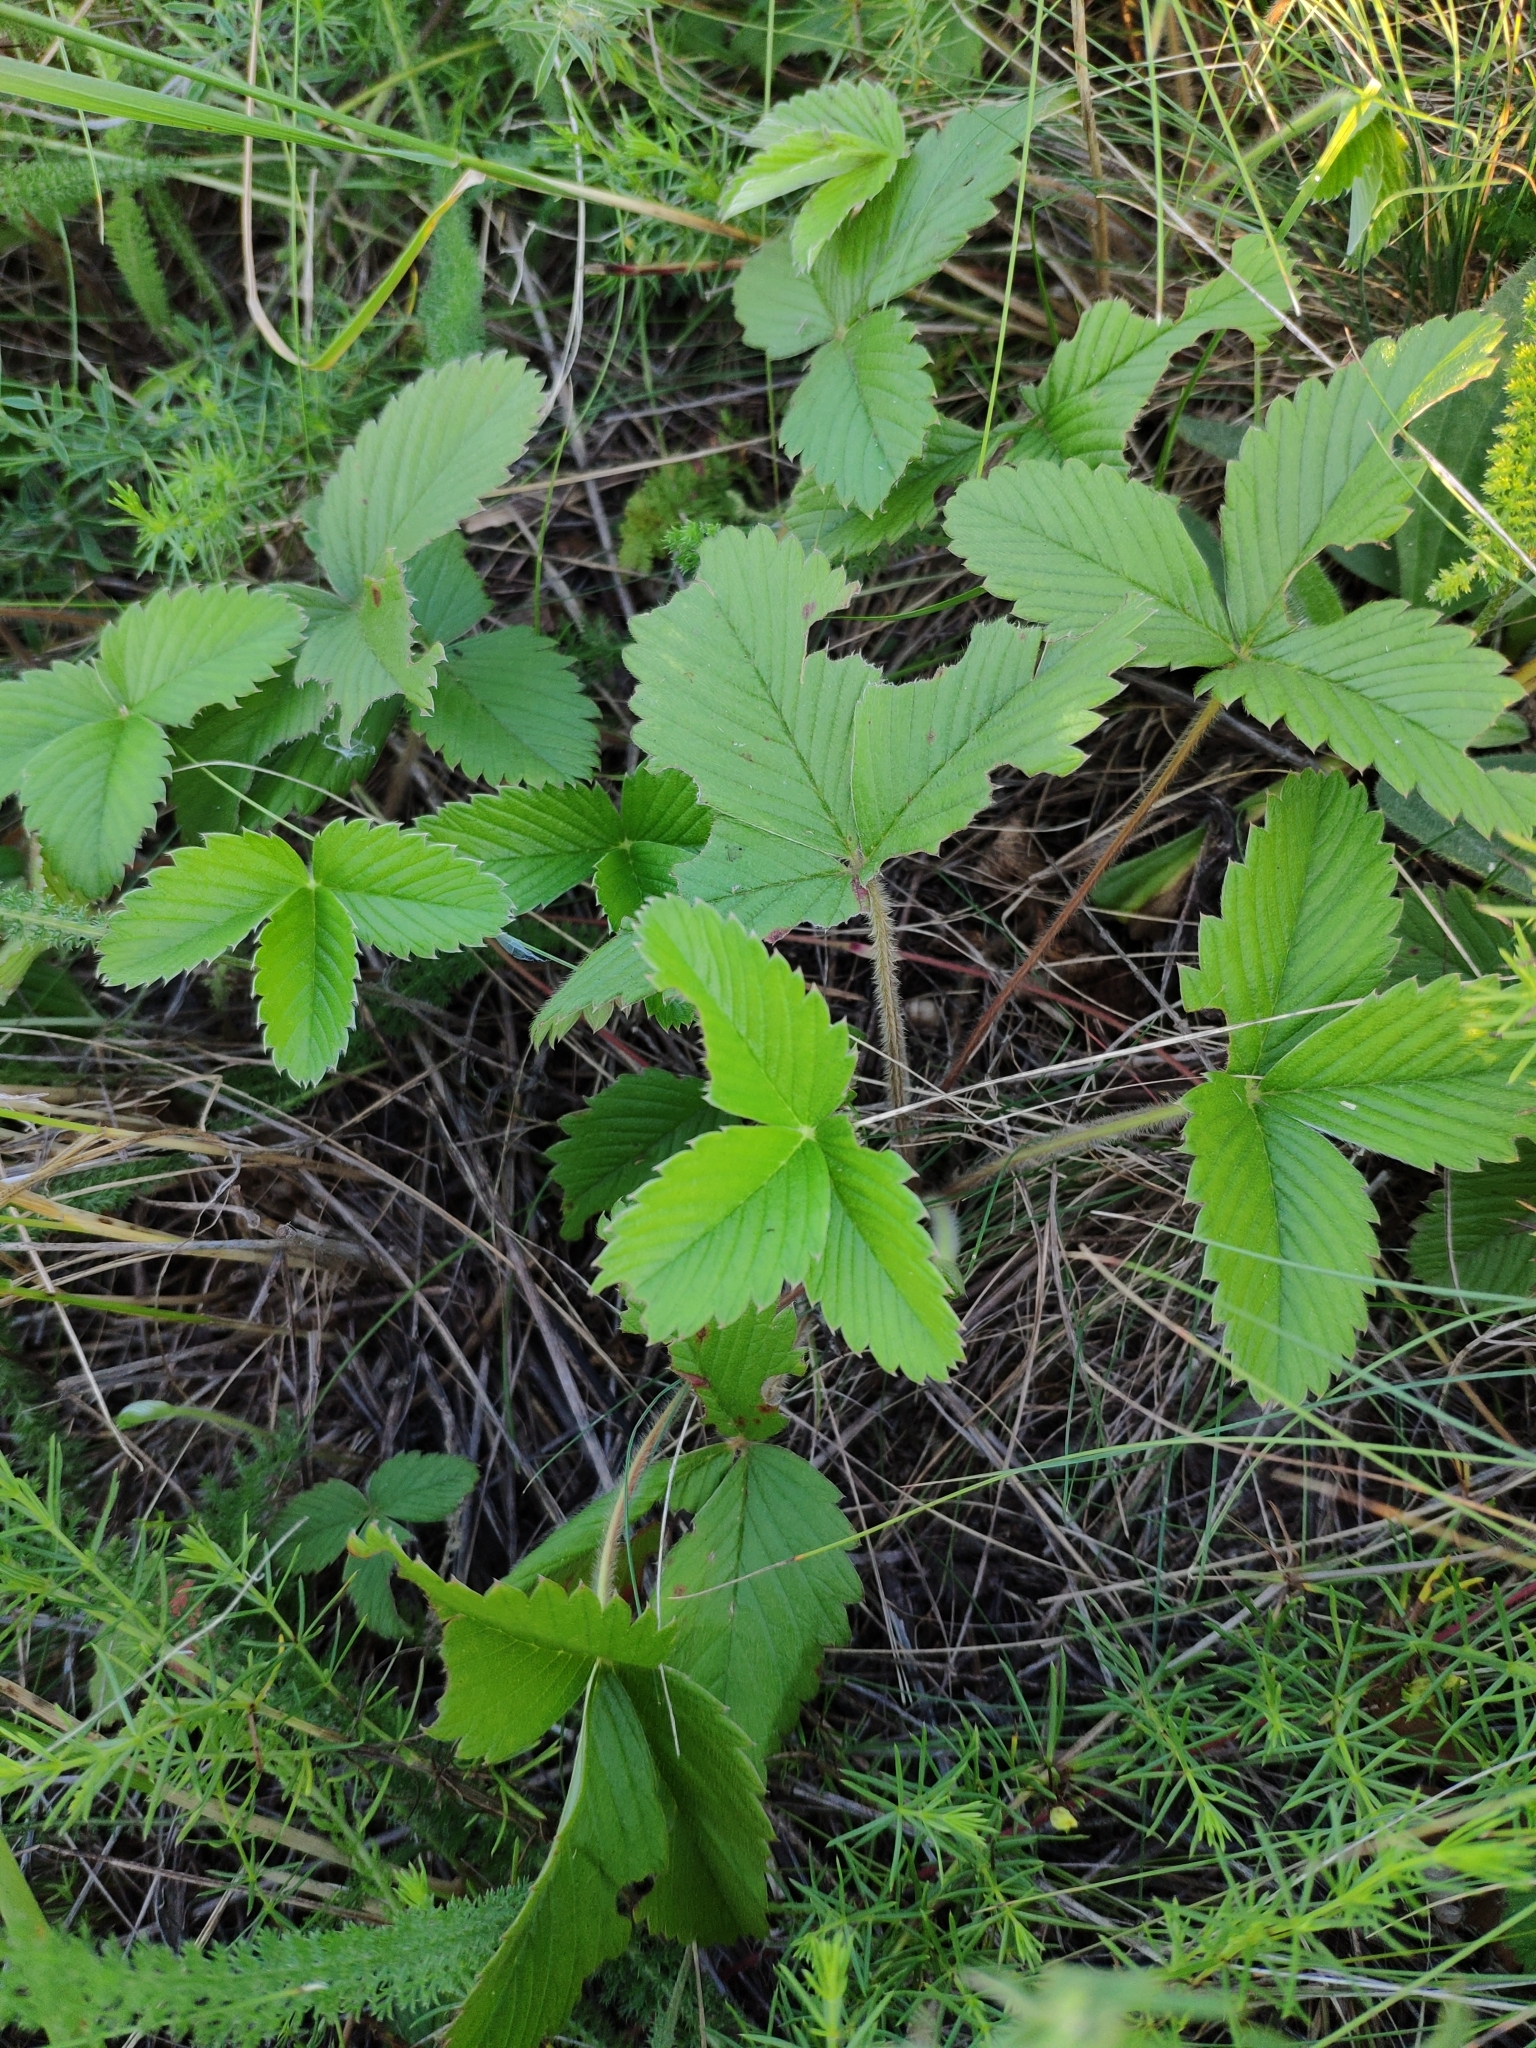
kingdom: Plantae
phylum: Tracheophyta
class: Magnoliopsida
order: Rosales
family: Rosaceae
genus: Fragaria
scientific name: Fragaria viridis
